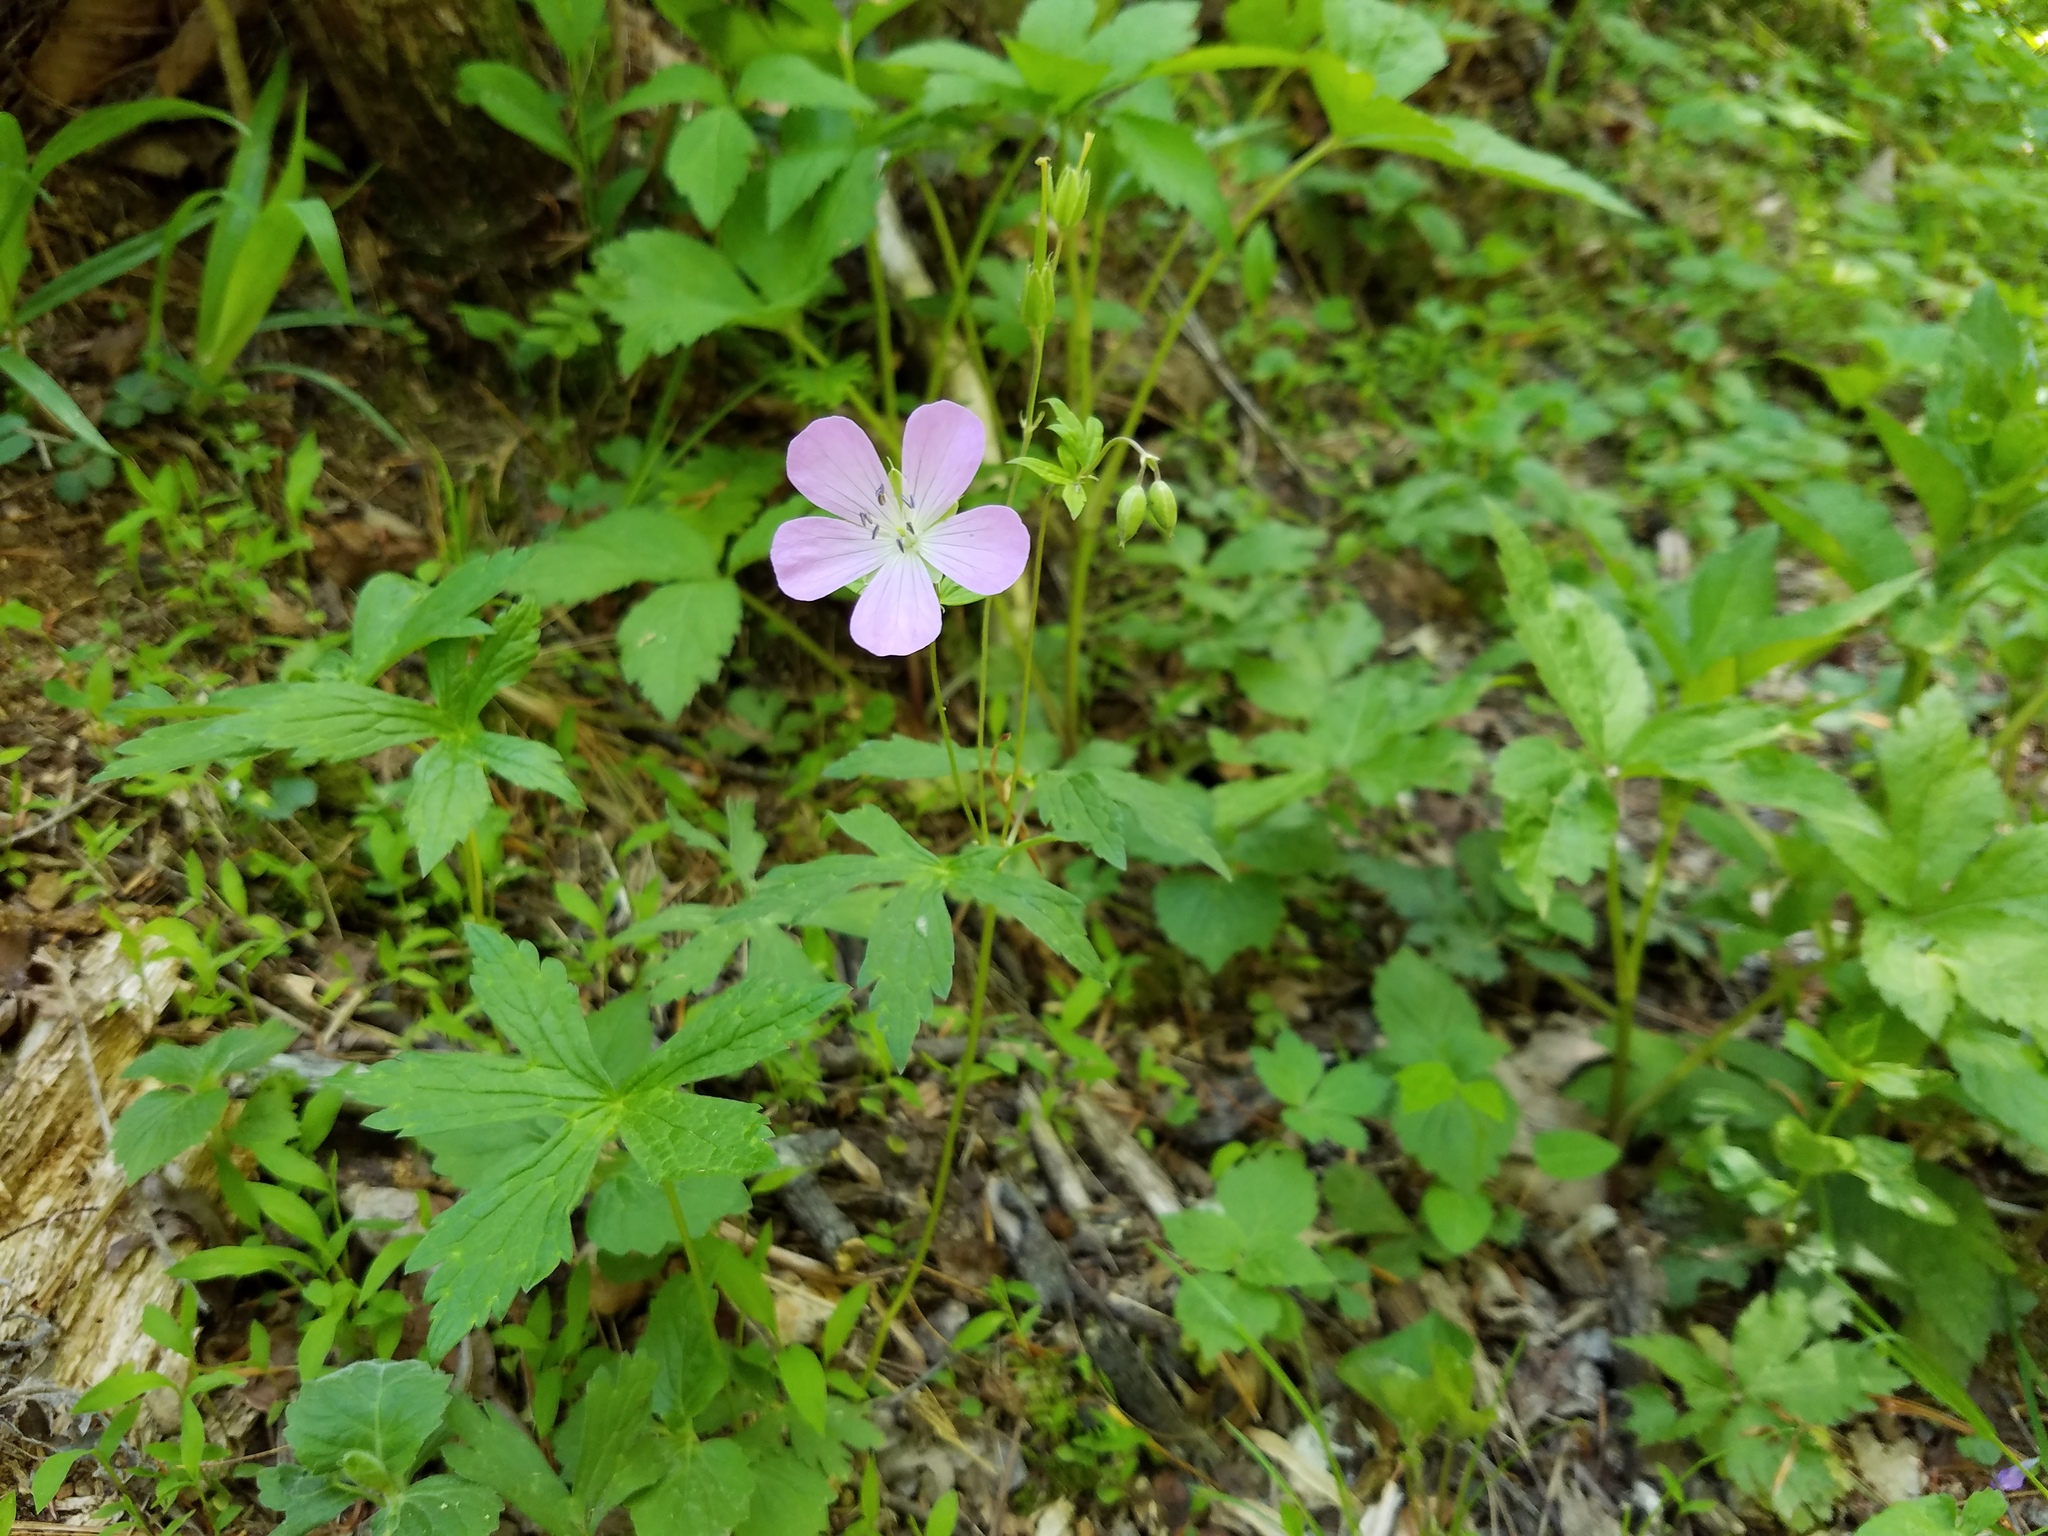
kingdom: Plantae
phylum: Tracheophyta
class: Magnoliopsida
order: Geraniales
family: Geraniaceae
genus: Geranium
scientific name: Geranium maculatum
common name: Spotted geranium
